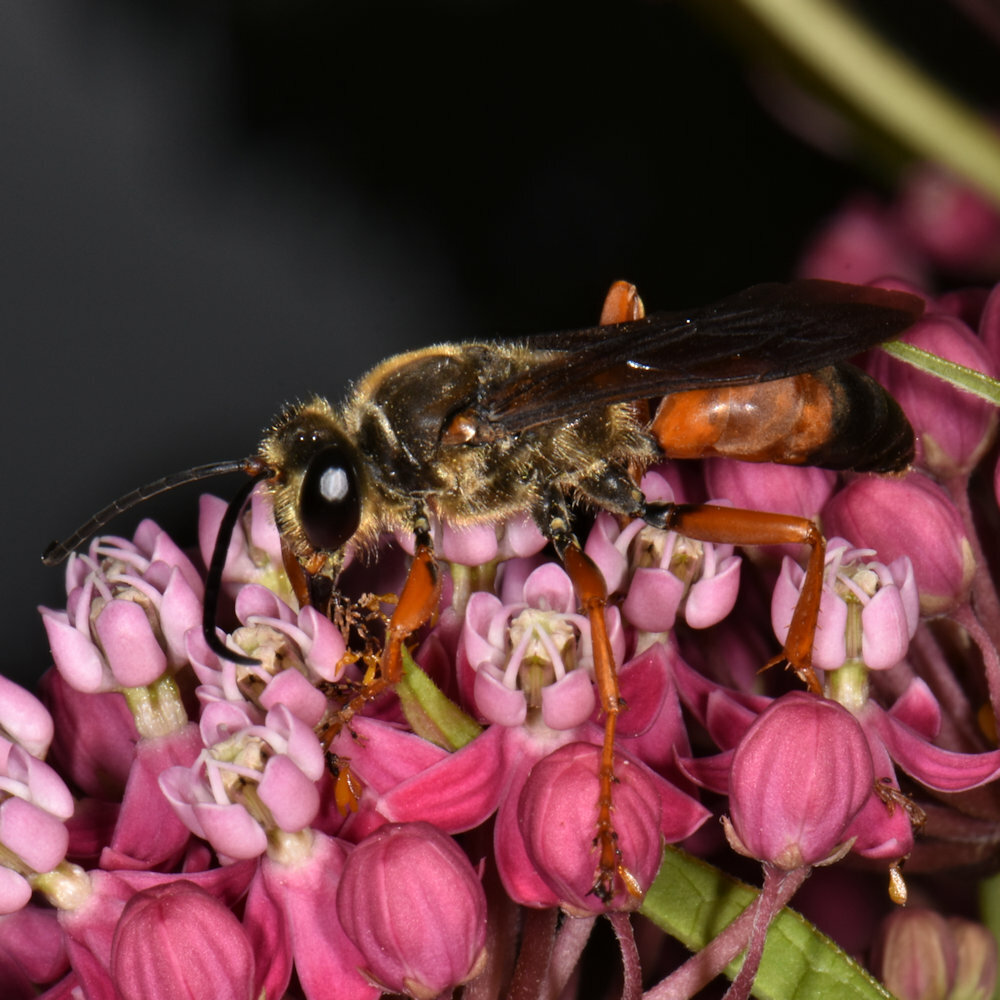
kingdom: Animalia
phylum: Arthropoda
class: Insecta
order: Hymenoptera
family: Sphecidae
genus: Sphex
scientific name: Sphex ichneumoneus
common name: Great golden digger wasp
